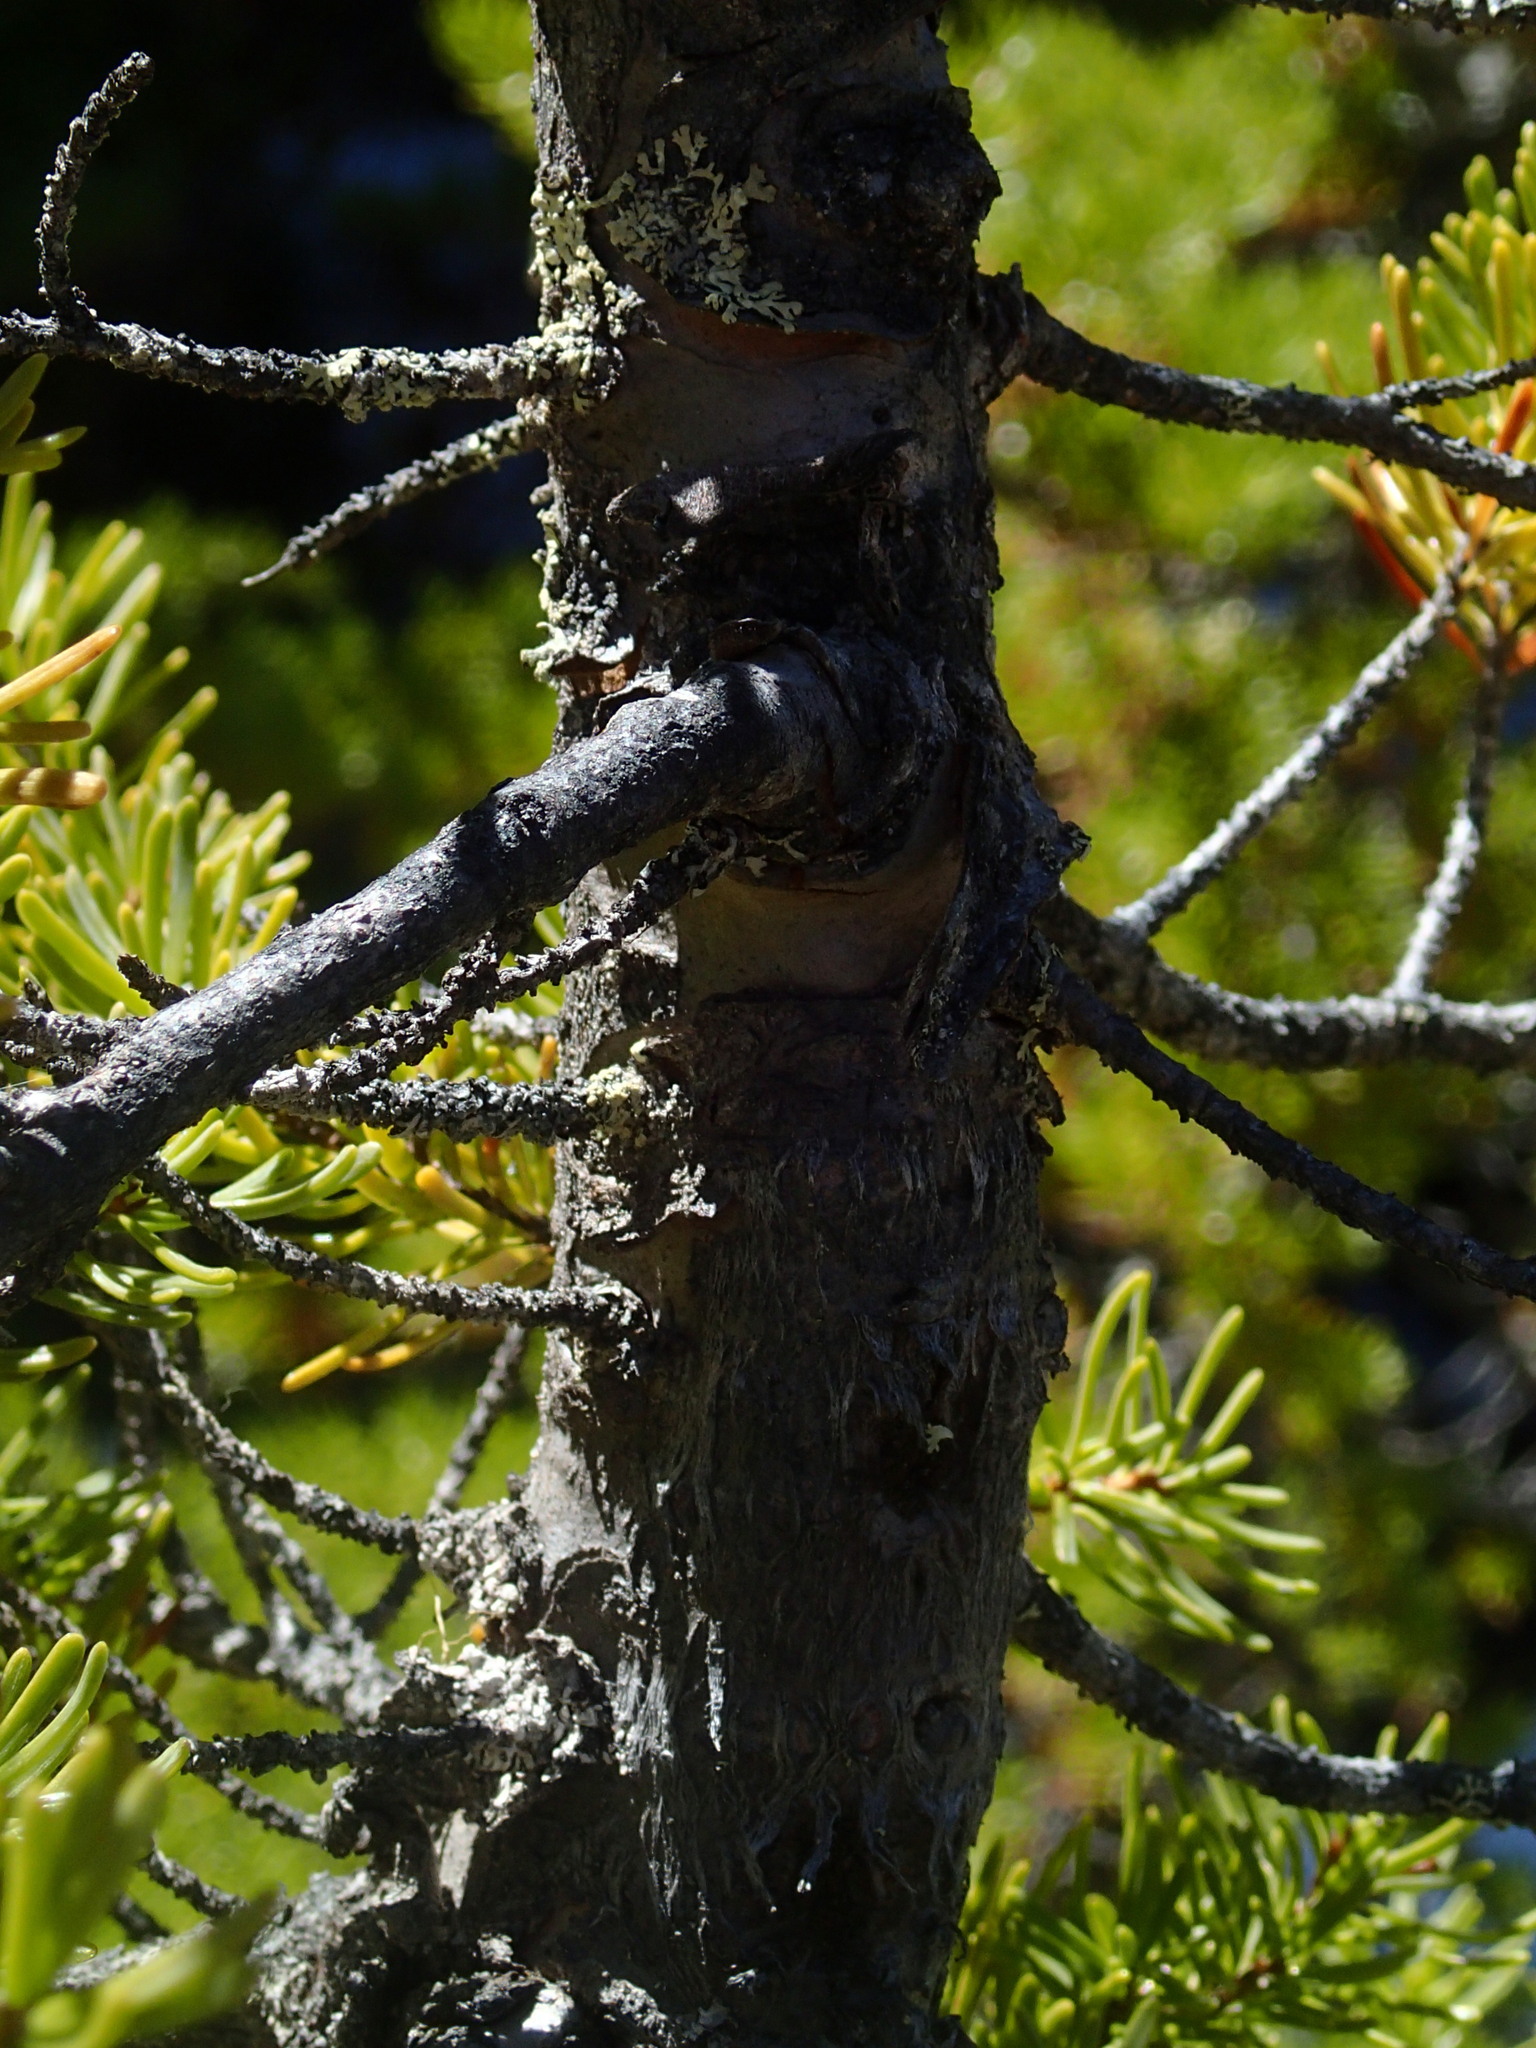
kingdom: Plantae
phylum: Tracheophyta
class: Pinopsida
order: Pinales
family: Pinaceae
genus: Tsuga
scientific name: Tsuga mertensiana
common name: Mountain hemlock
